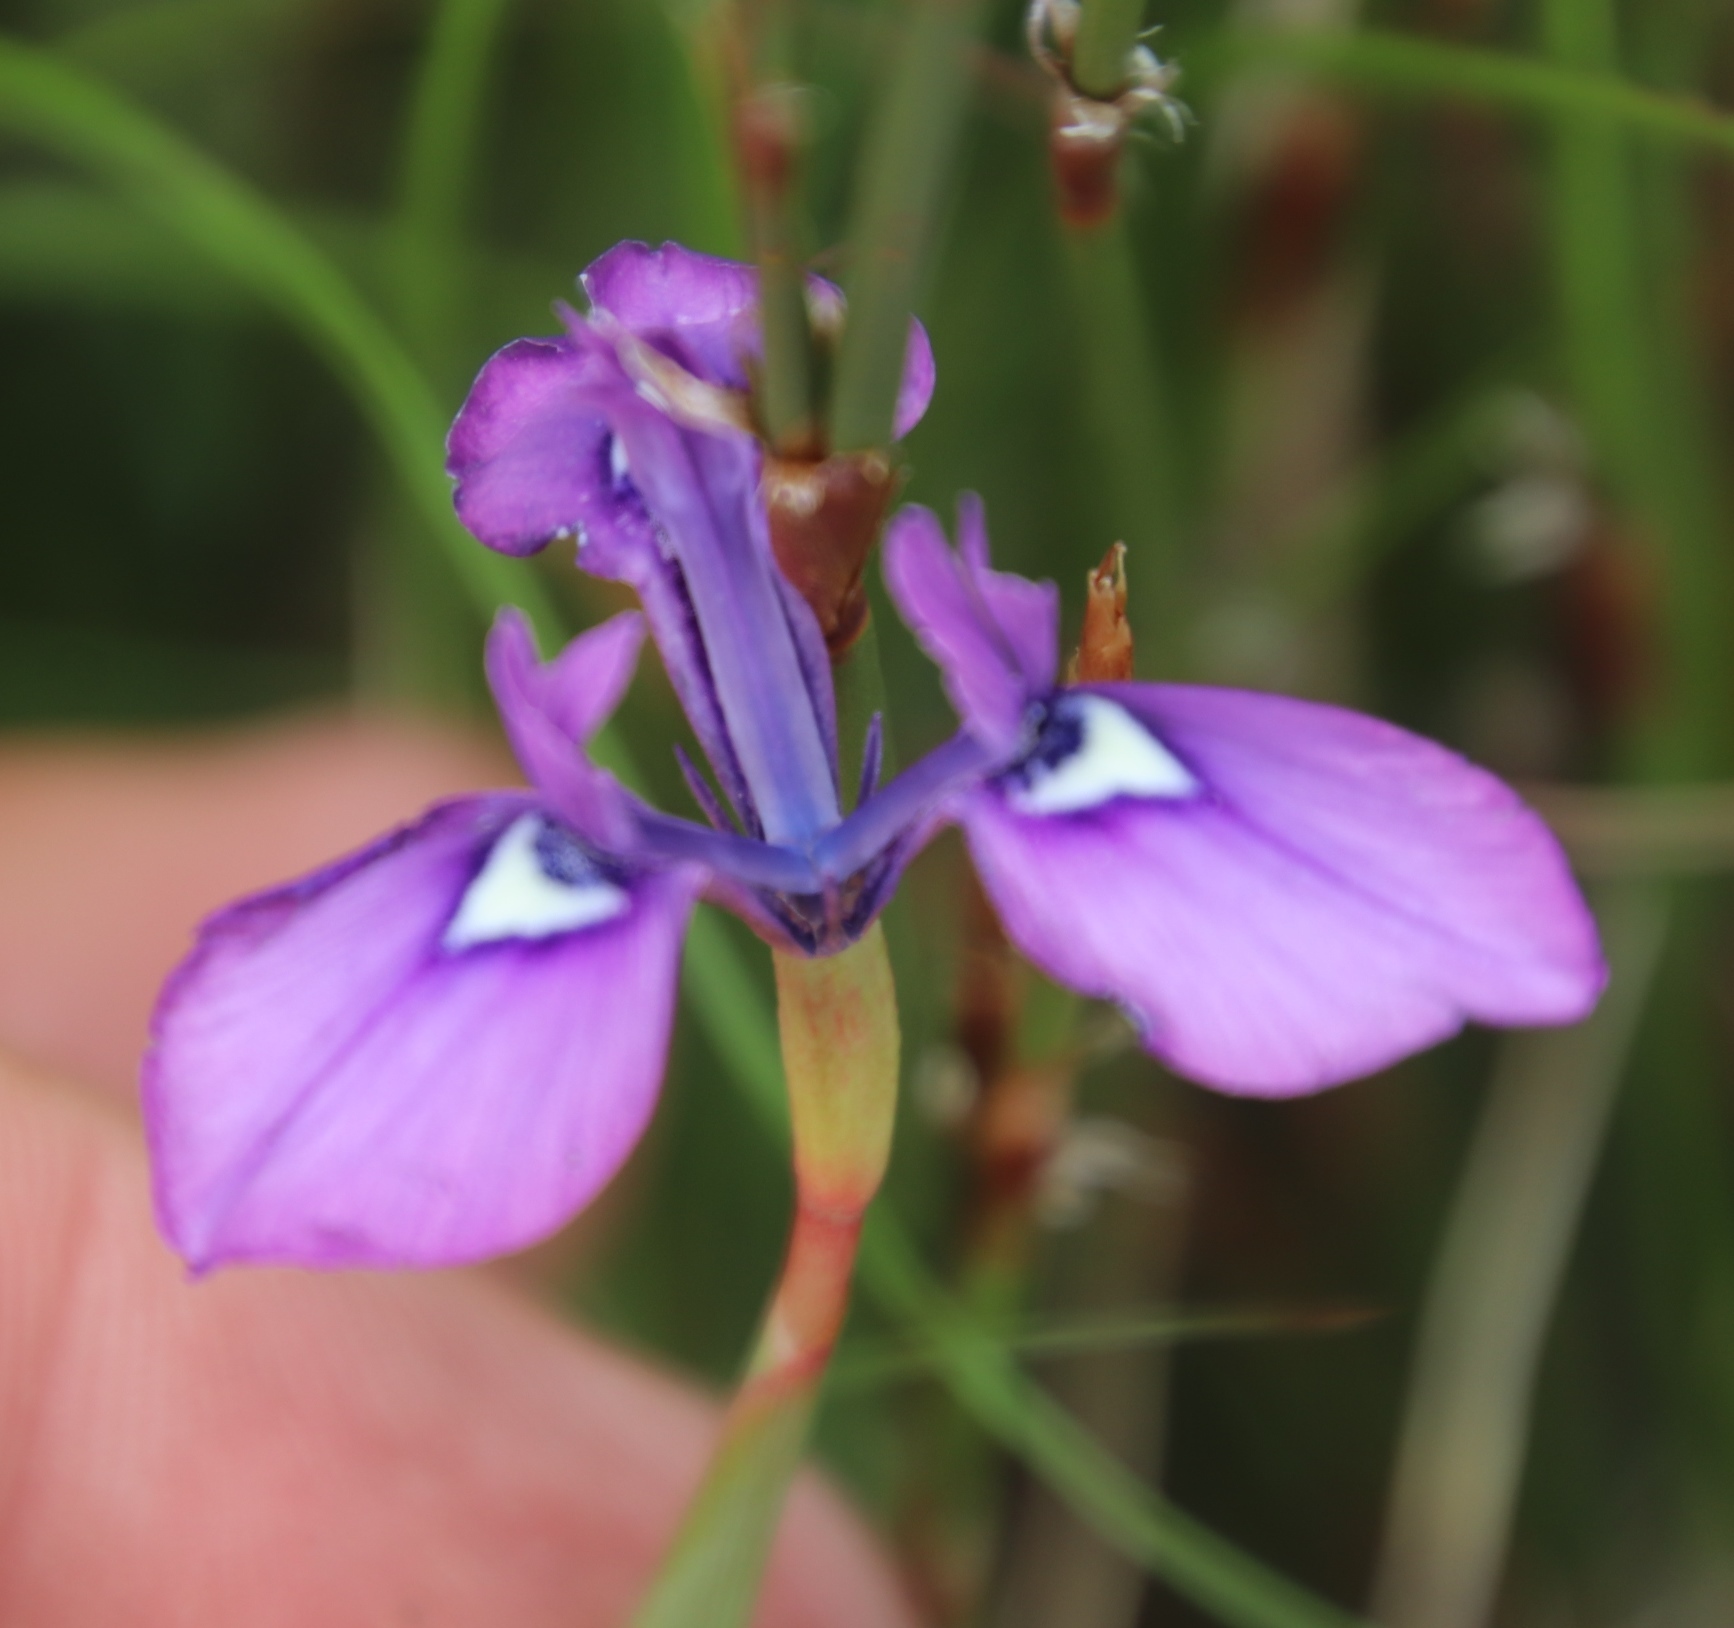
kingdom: Plantae
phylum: Tracheophyta
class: Liliopsida
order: Asparagales
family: Iridaceae
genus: Moraea
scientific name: Moraea tripetala
